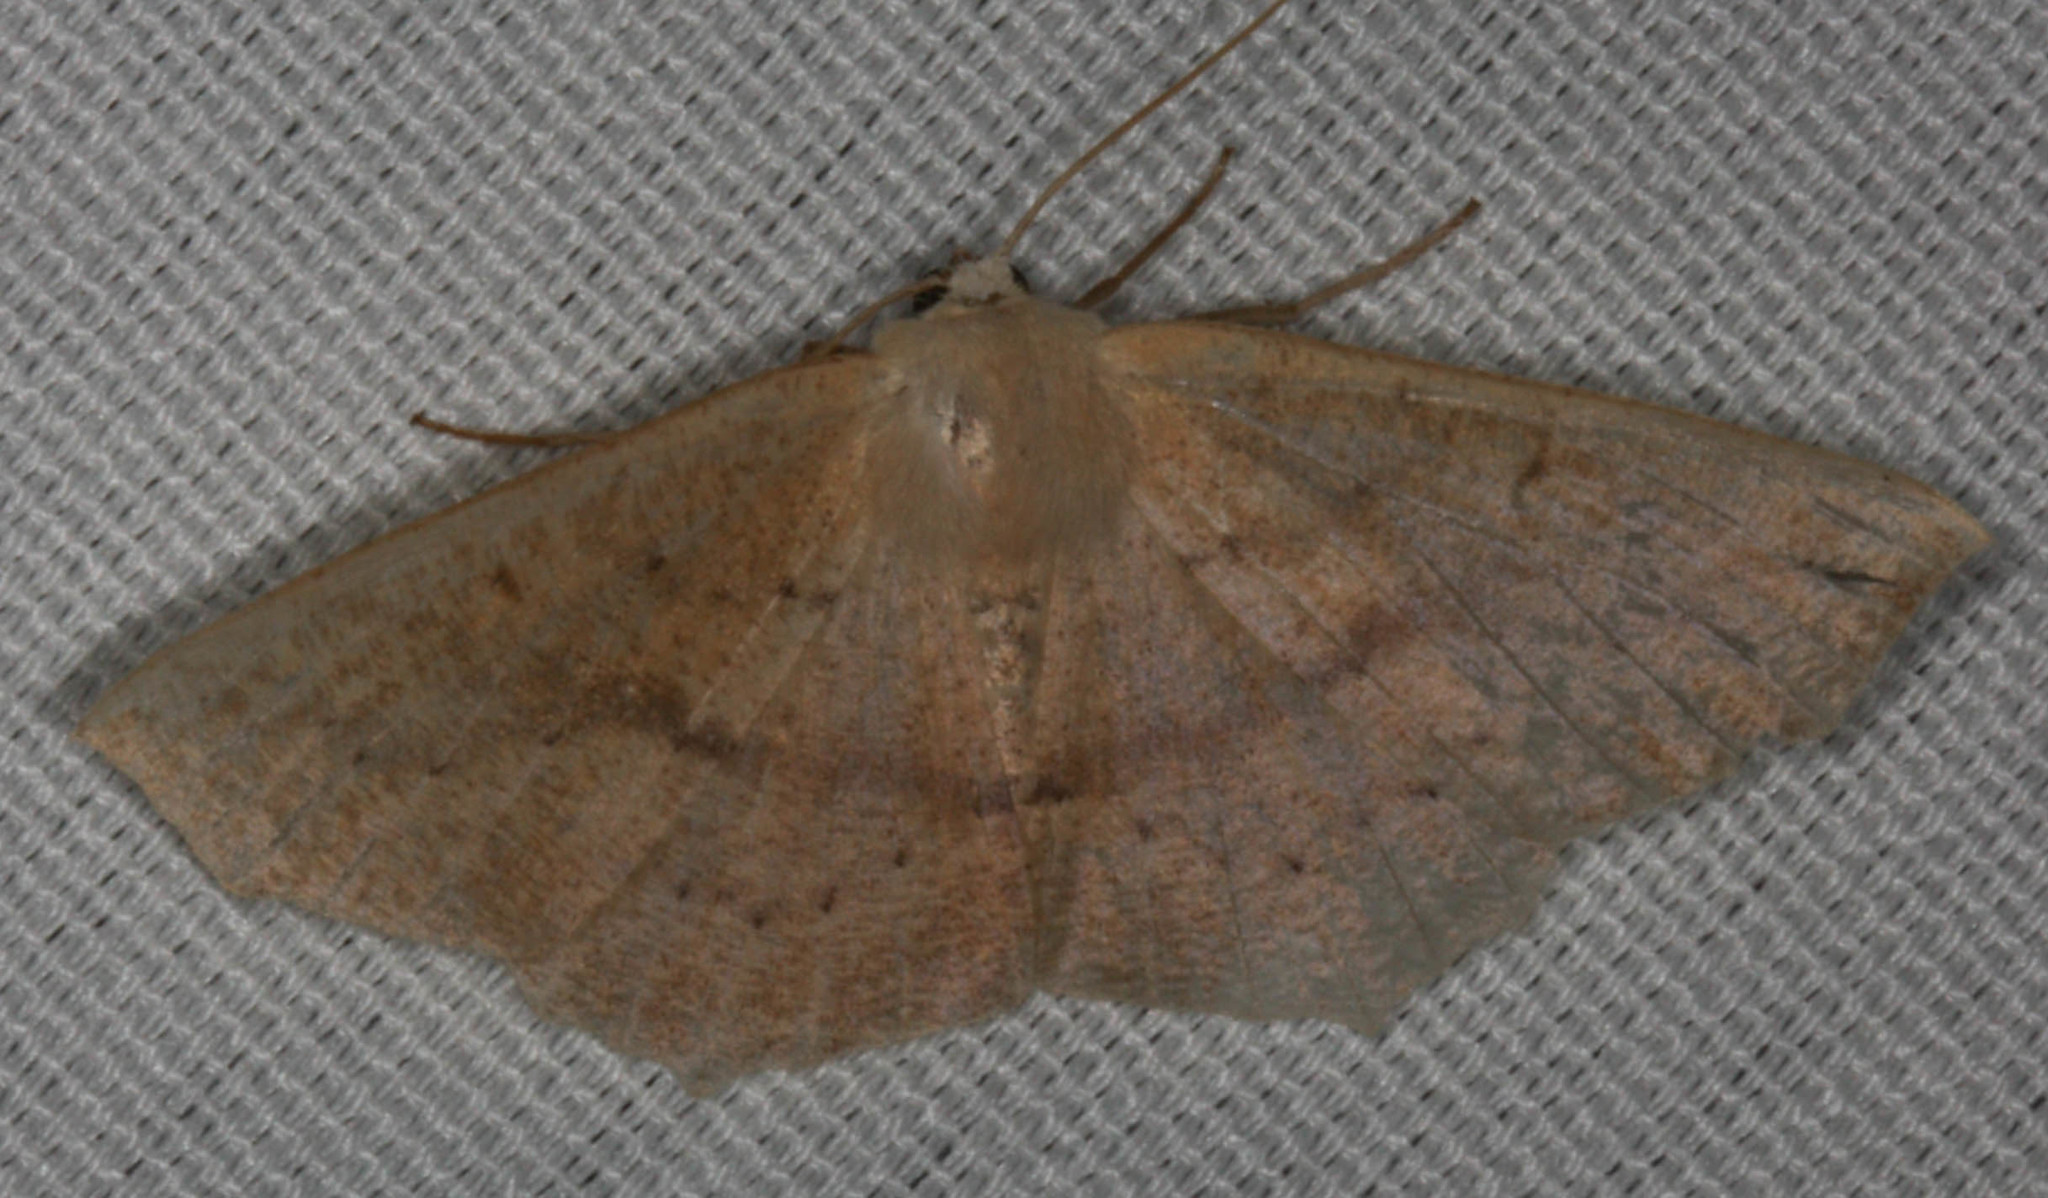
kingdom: Animalia
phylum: Arthropoda
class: Insecta
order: Lepidoptera
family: Geometridae
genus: Sabulodes
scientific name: Sabulodes aegrotata
